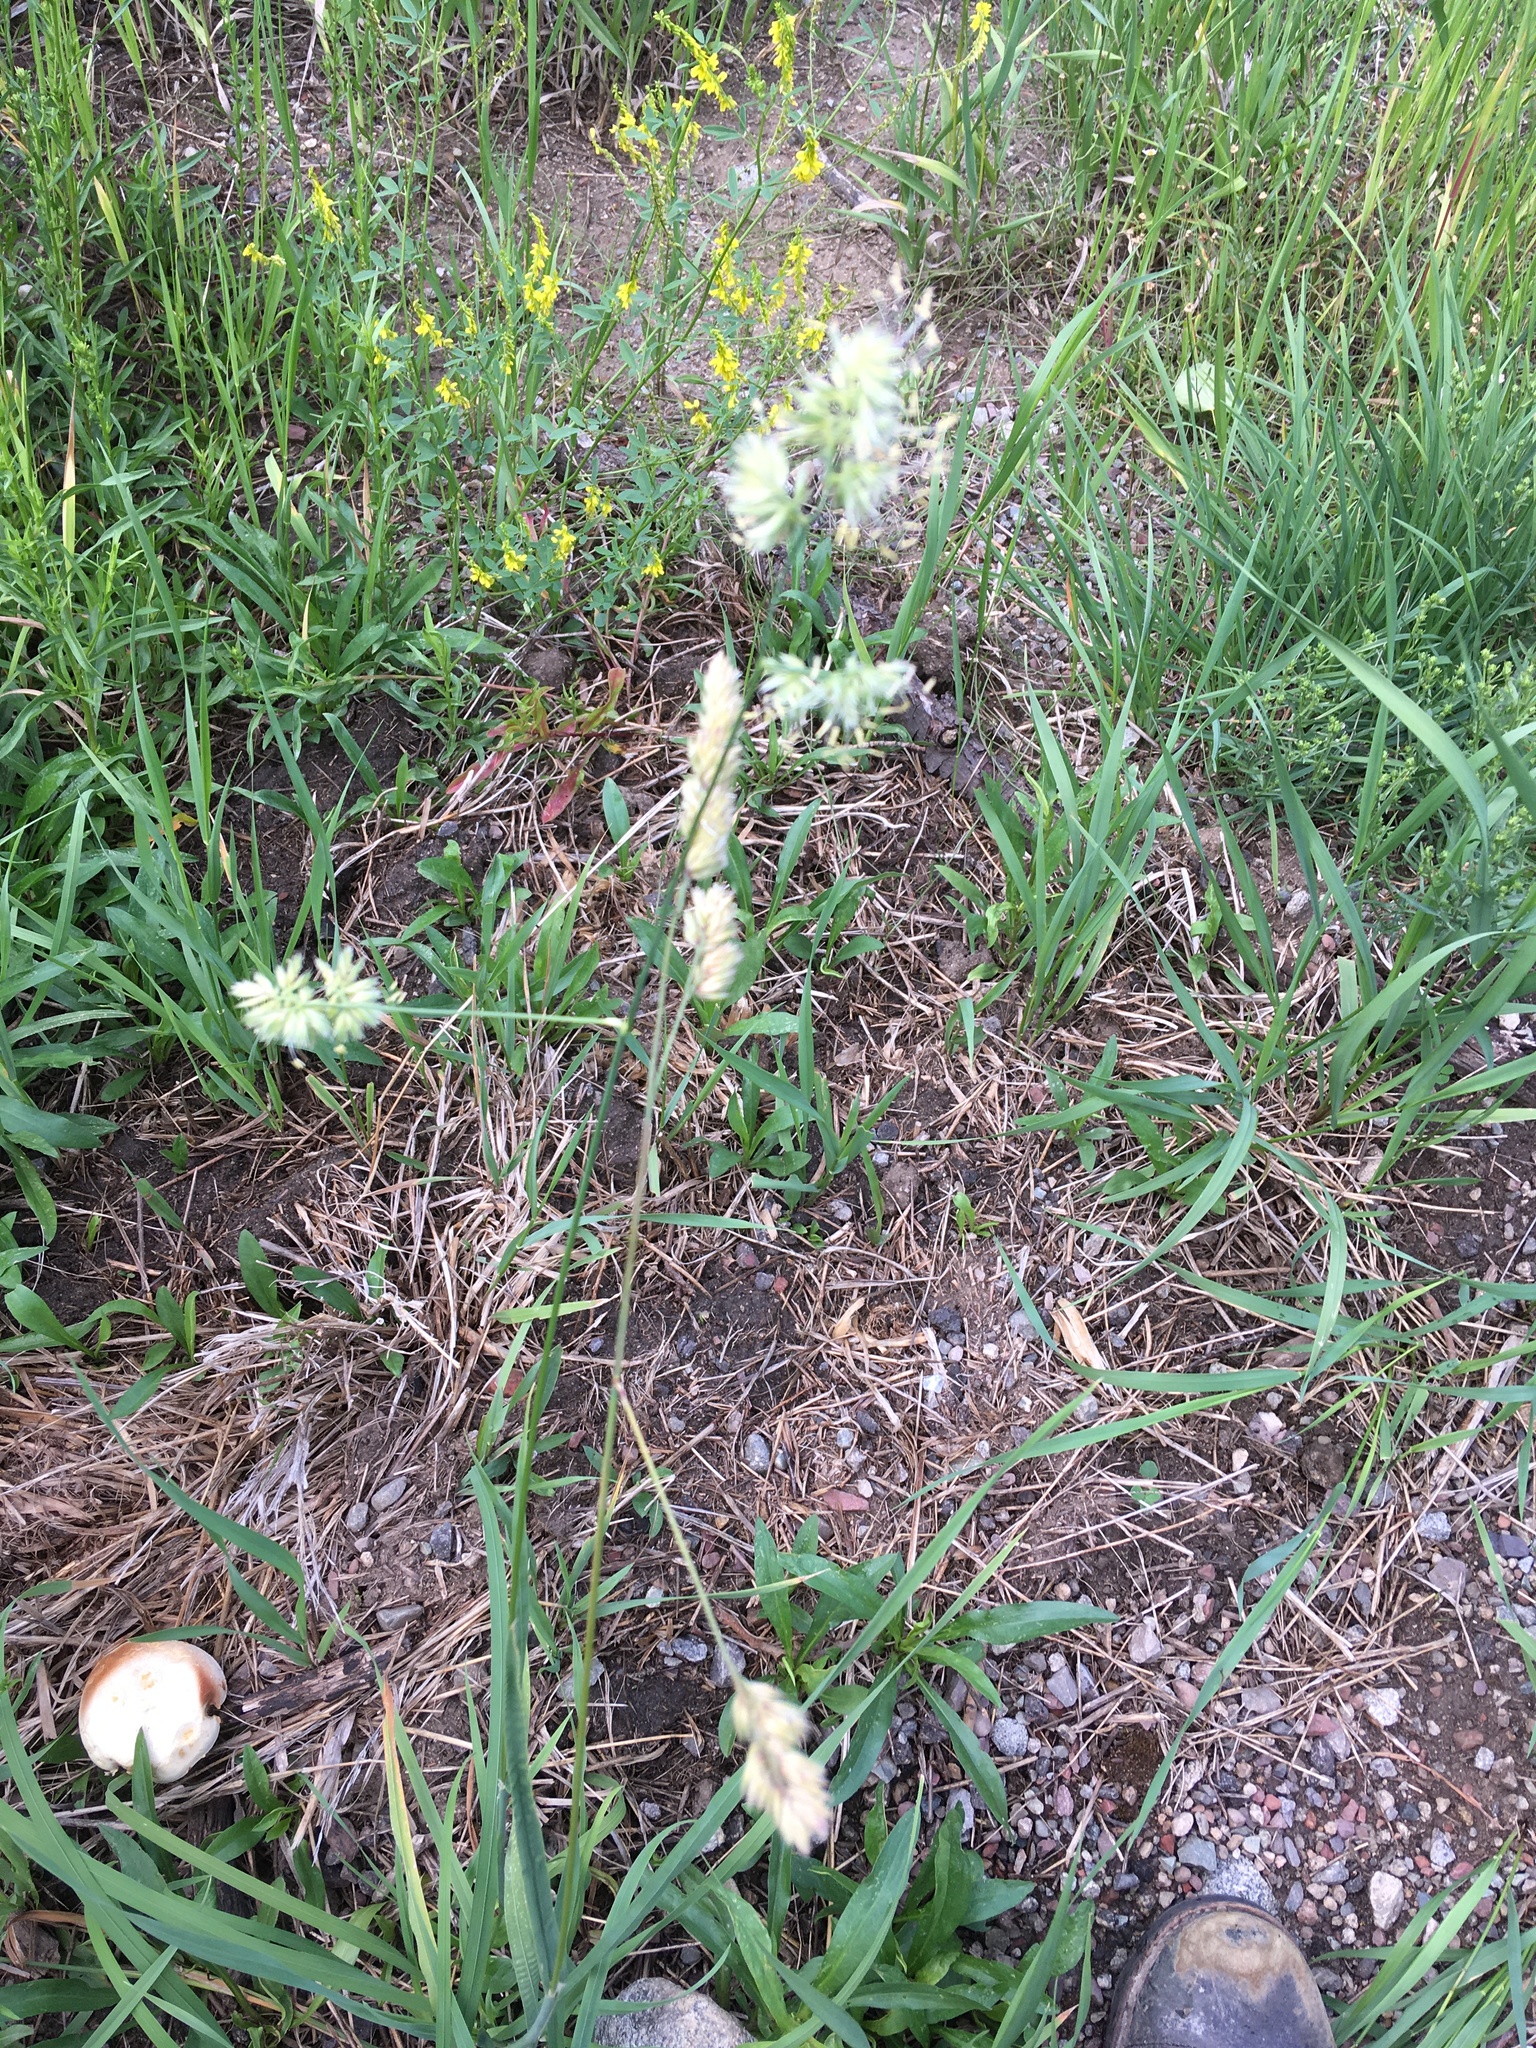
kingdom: Plantae
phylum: Tracheophyta
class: Liliopsida
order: Poales
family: Poaceae
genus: Dactylis
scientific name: Dactylis glomerata
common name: Orchardgrass
